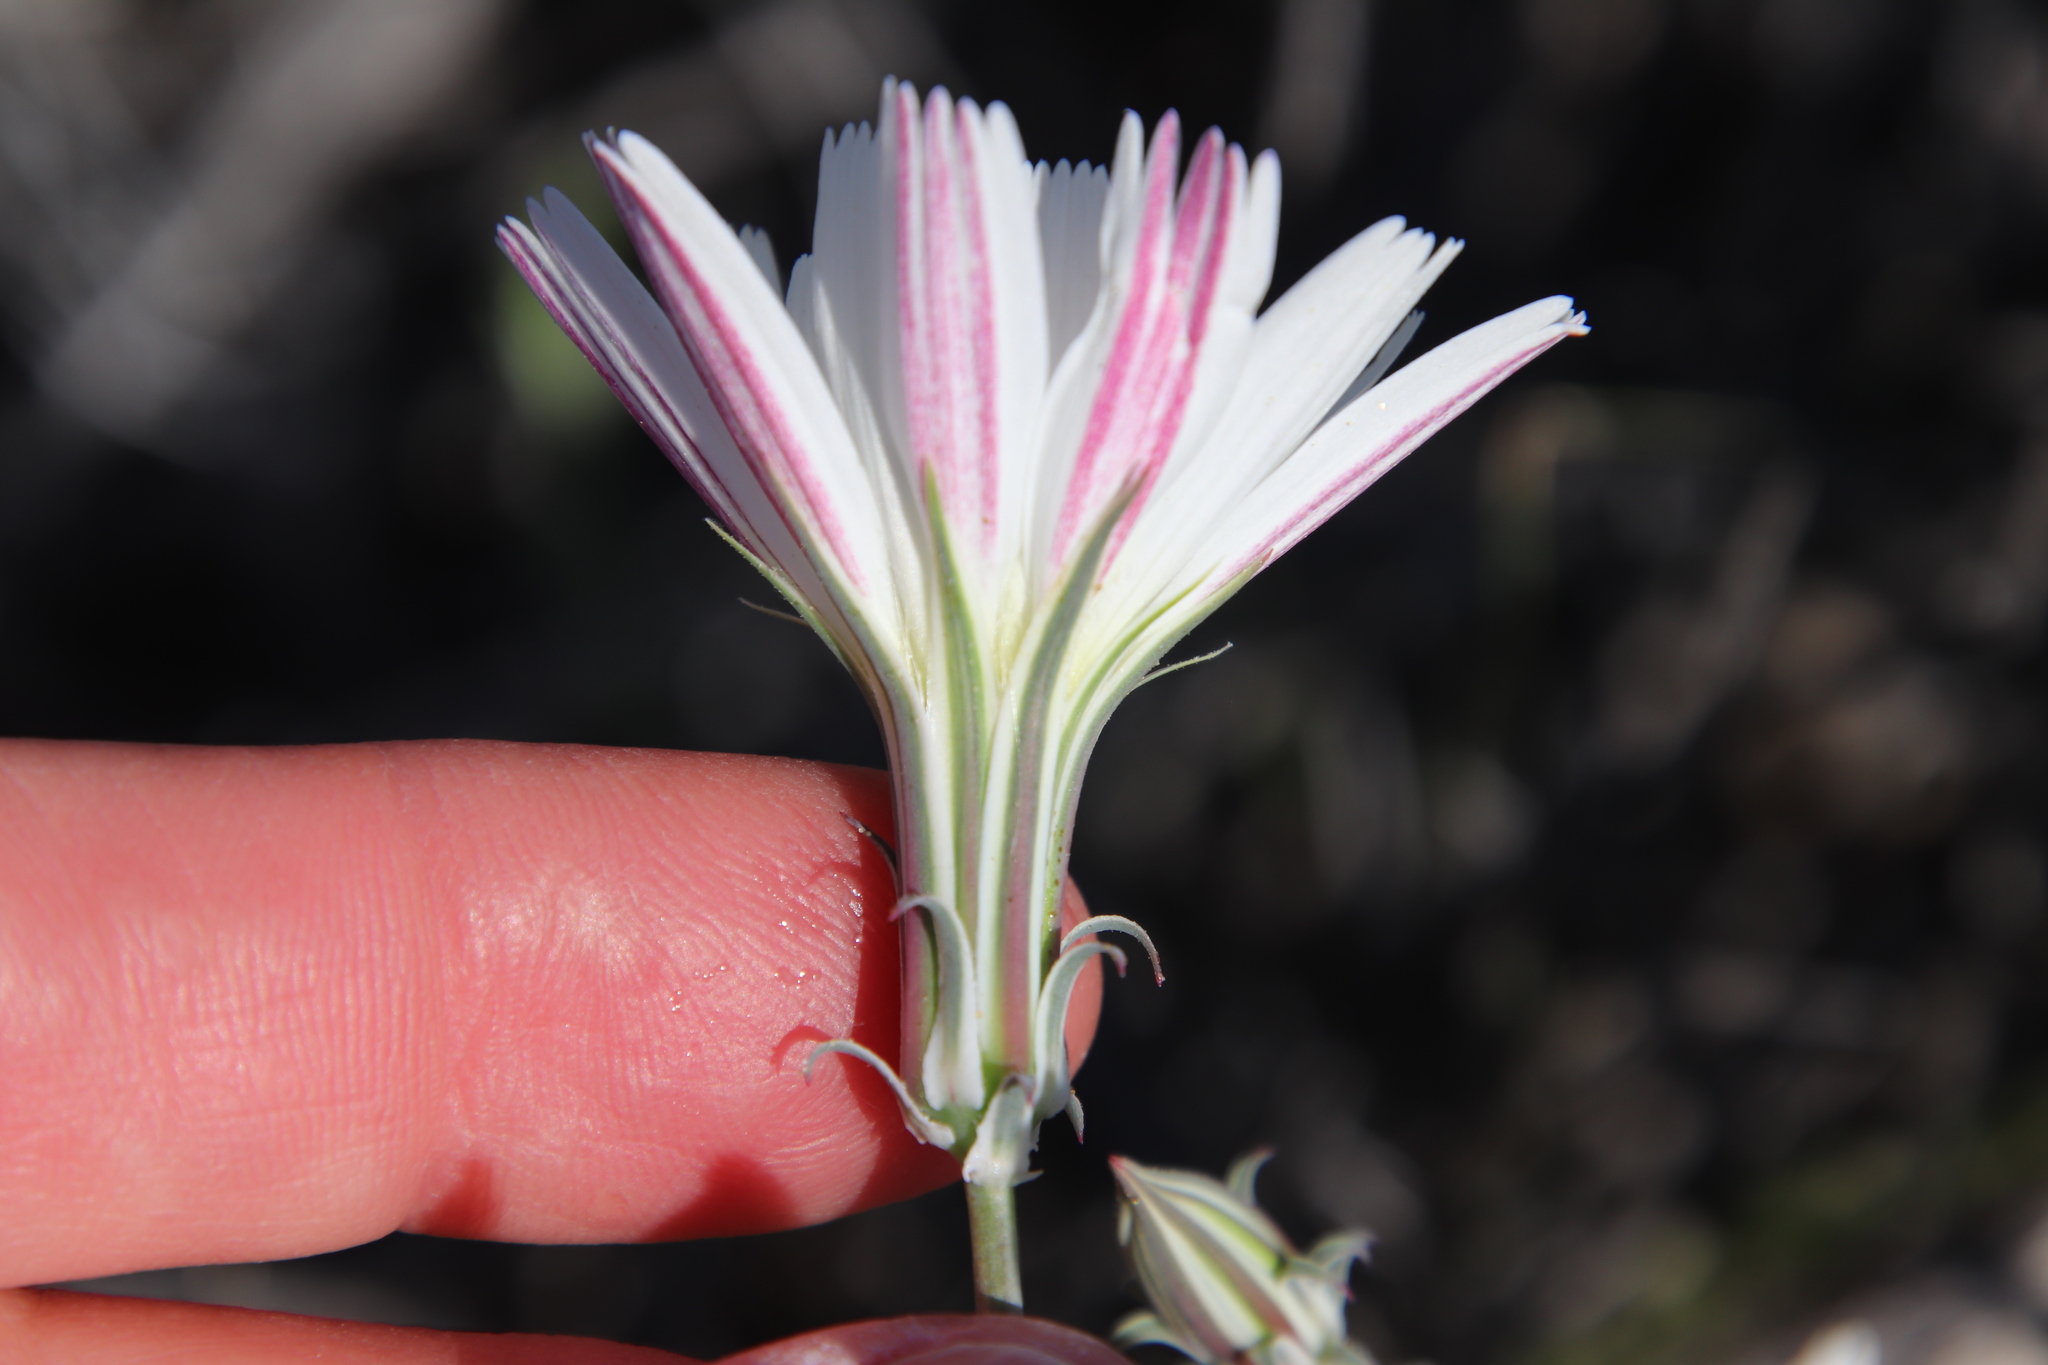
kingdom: Plantae
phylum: Tracheophyta
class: Magnoliopsida
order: Asterales
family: Asteraceae
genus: Rafinesquia
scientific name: Rafinesquia neomexicana
